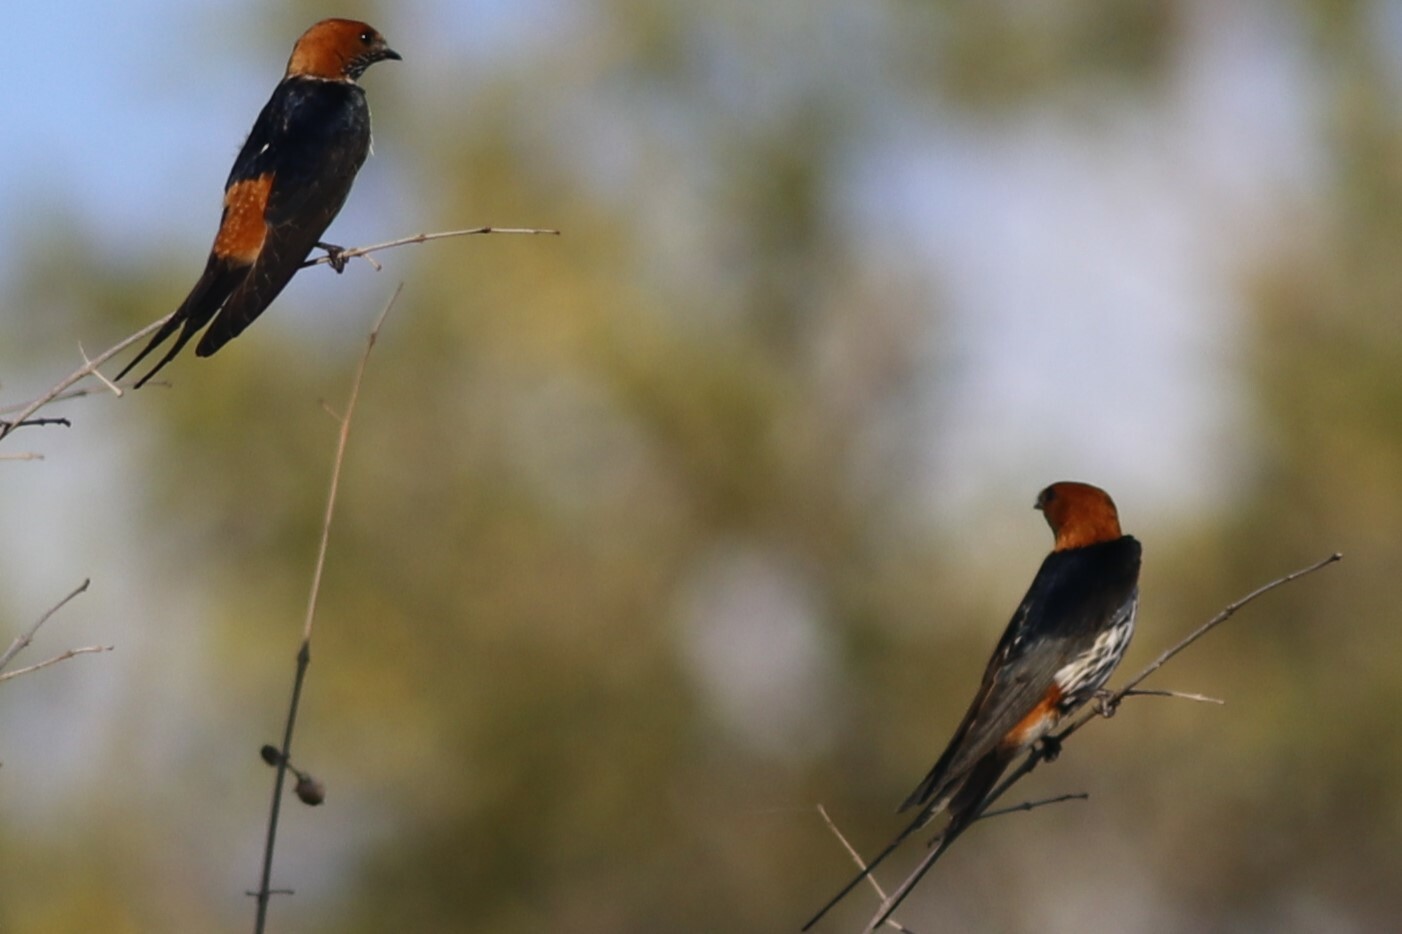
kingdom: Animalia
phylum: Chordata
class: Aves
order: Passeriformes
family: Hirundinidae
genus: Cecropis
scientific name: Cecropis abyssinica
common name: Lesser striped-swallow
